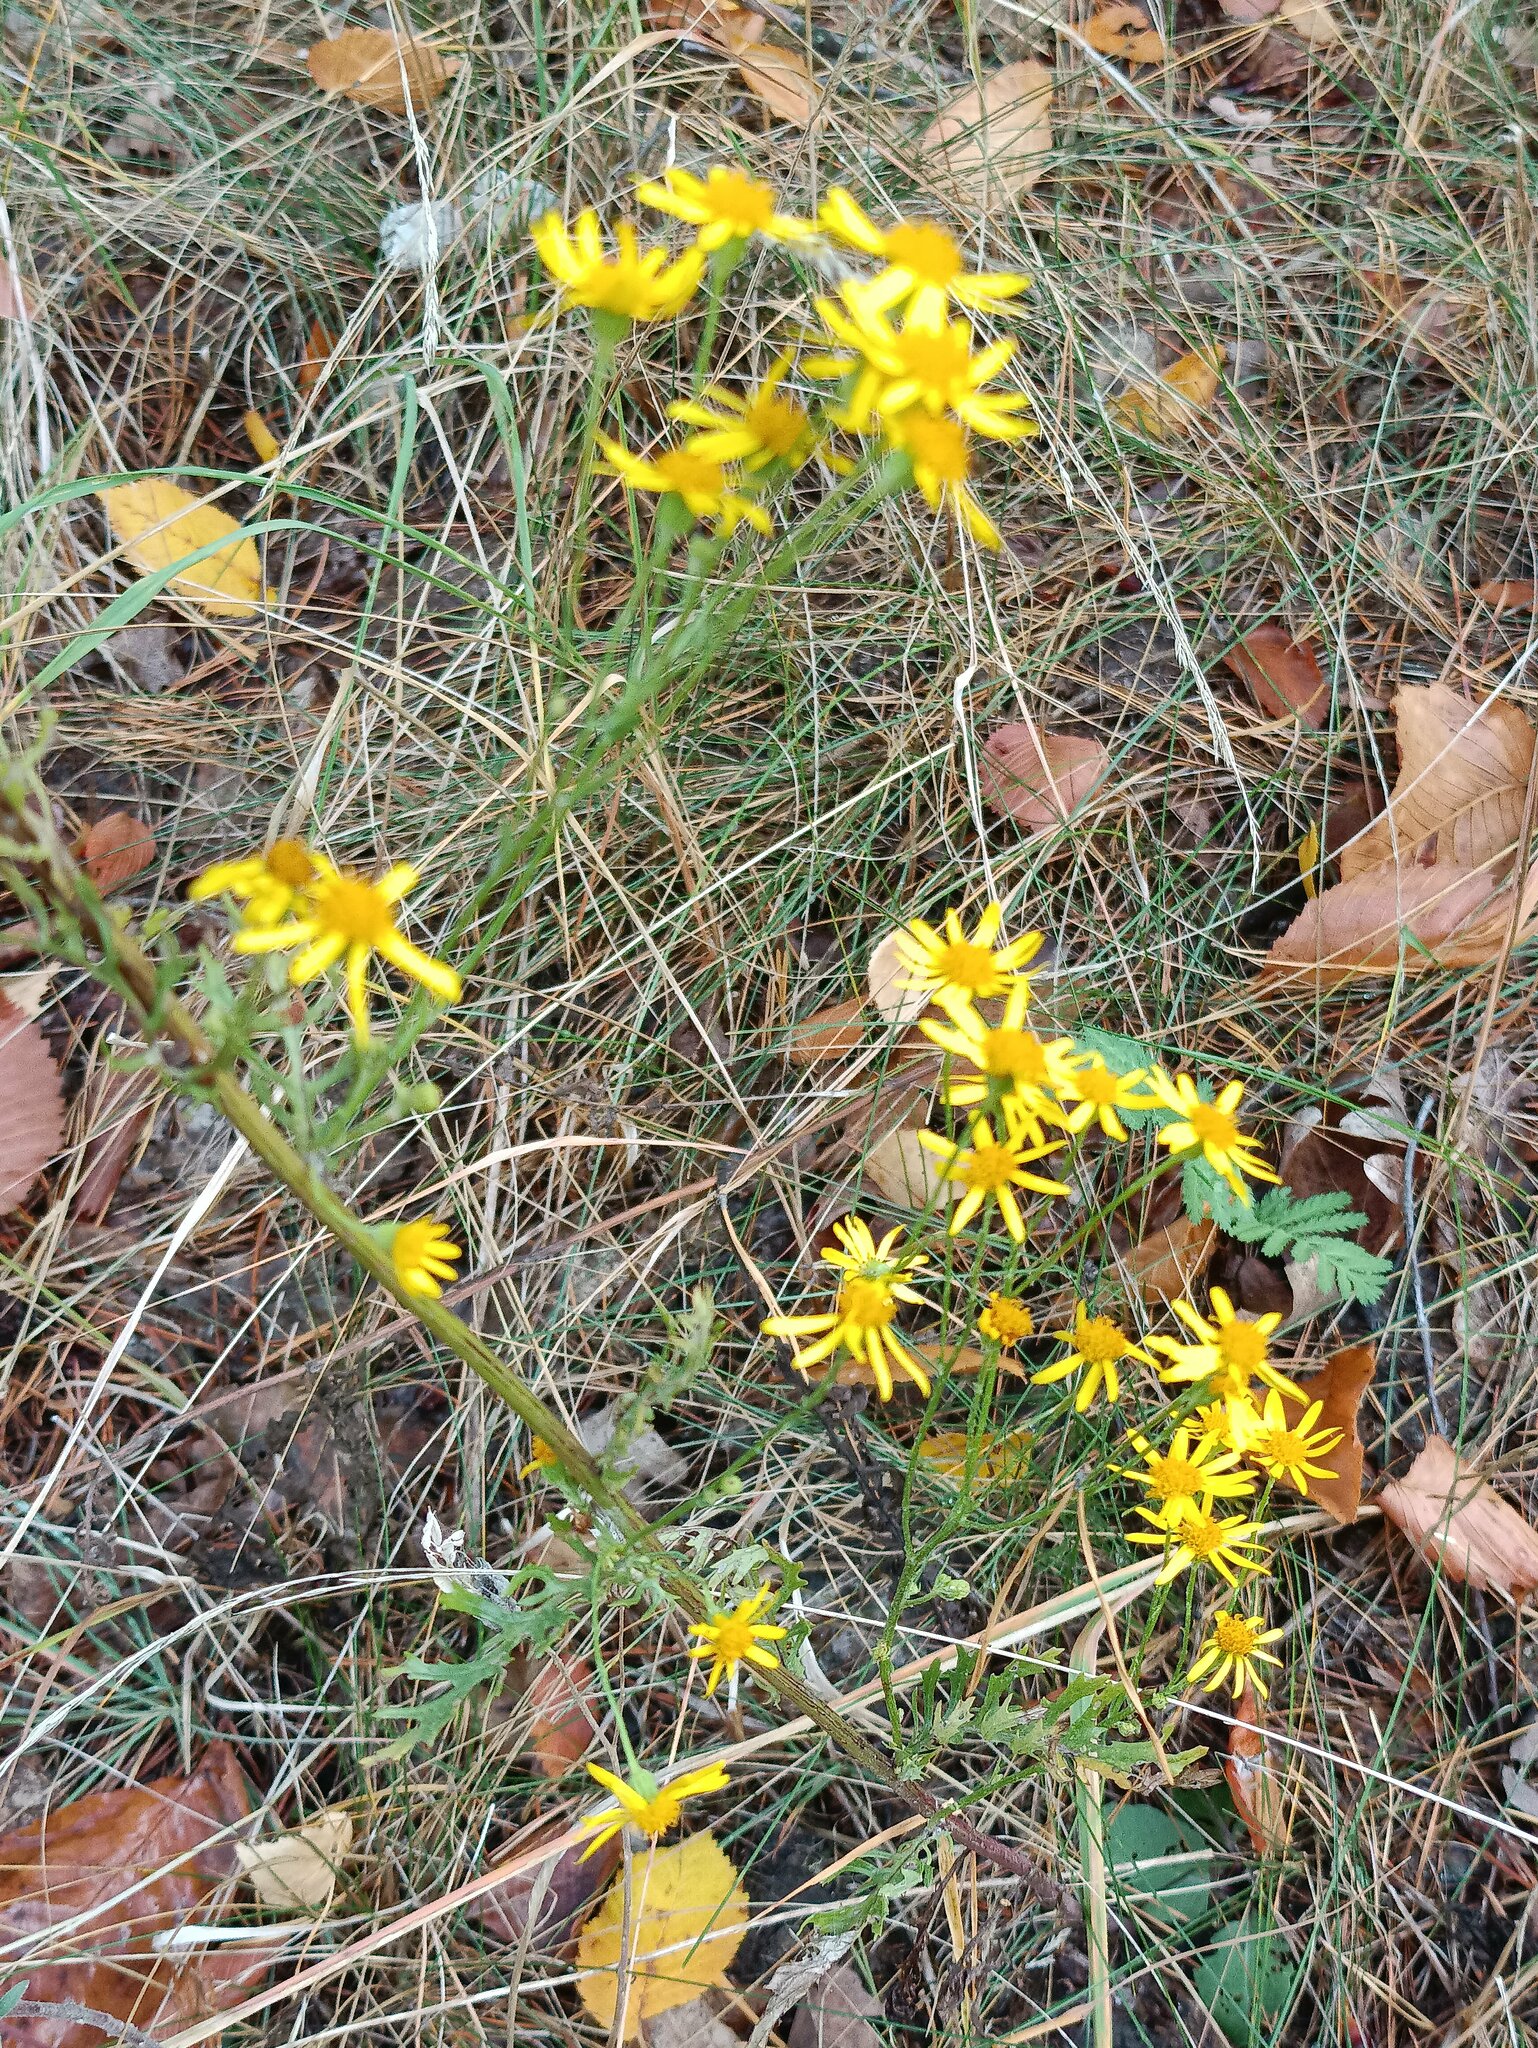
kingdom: Plantae
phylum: Tracheophyta
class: Magnoliopsida
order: Asterales
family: Asteraceae
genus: Jacobaea
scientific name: Jacobaea vulgaris
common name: Stinking willie
